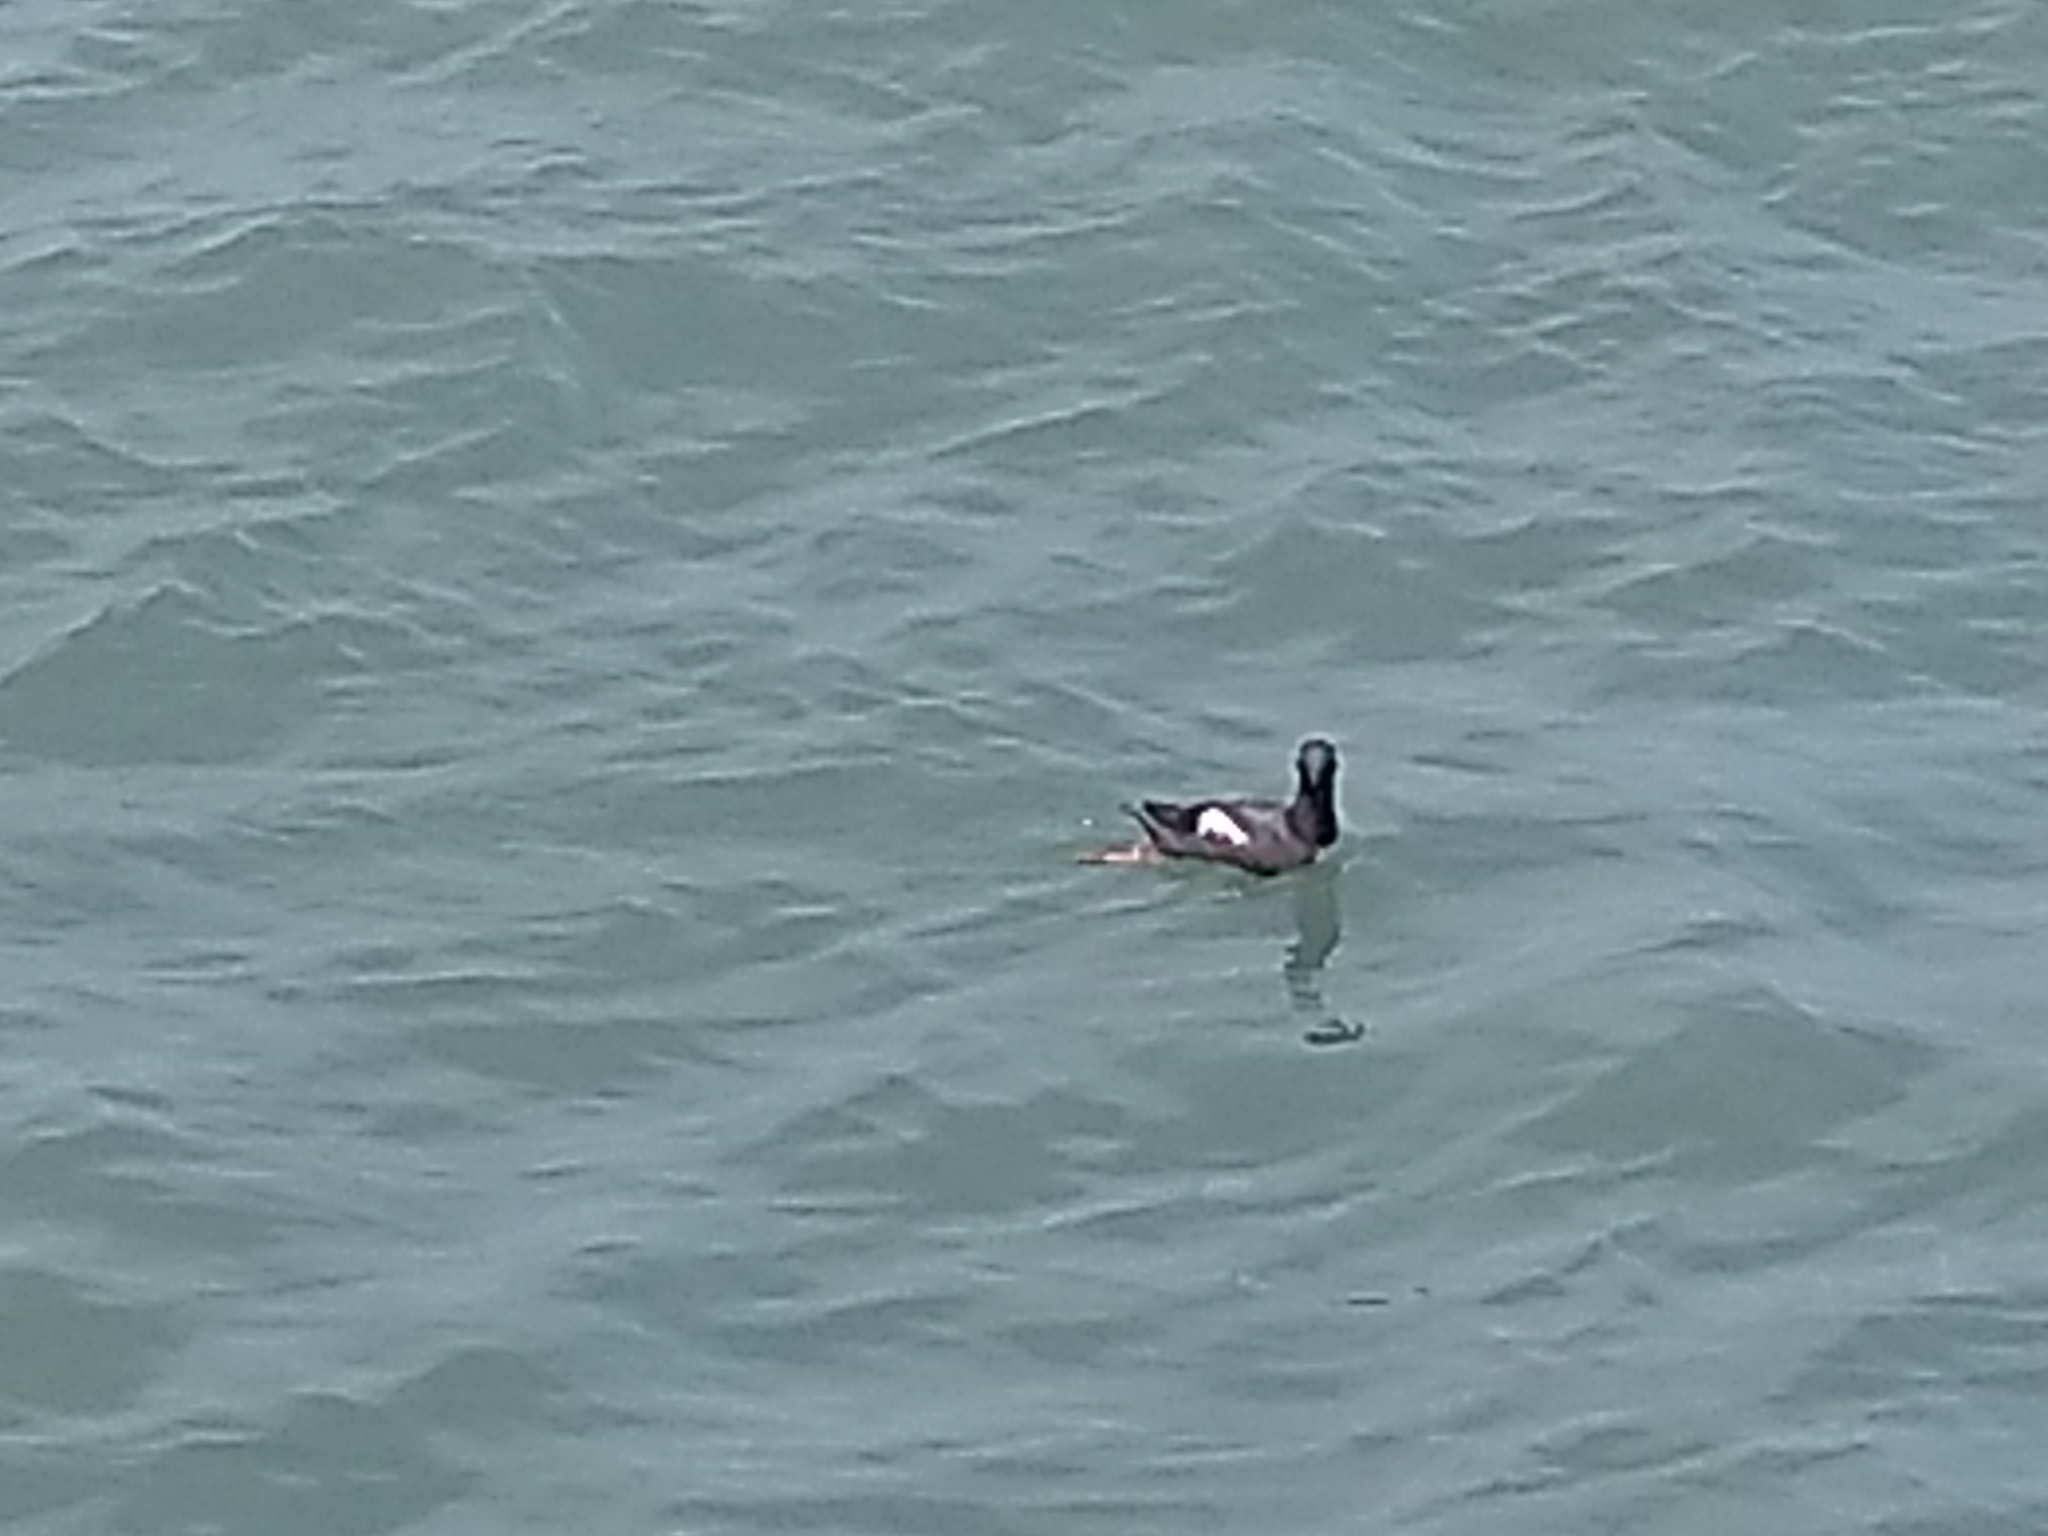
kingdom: Animalia
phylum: Chordata
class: Aves
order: Charadriiformes
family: Alcidae
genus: Cepphus
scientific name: Cepphus columba
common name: Pigeon guillemot
